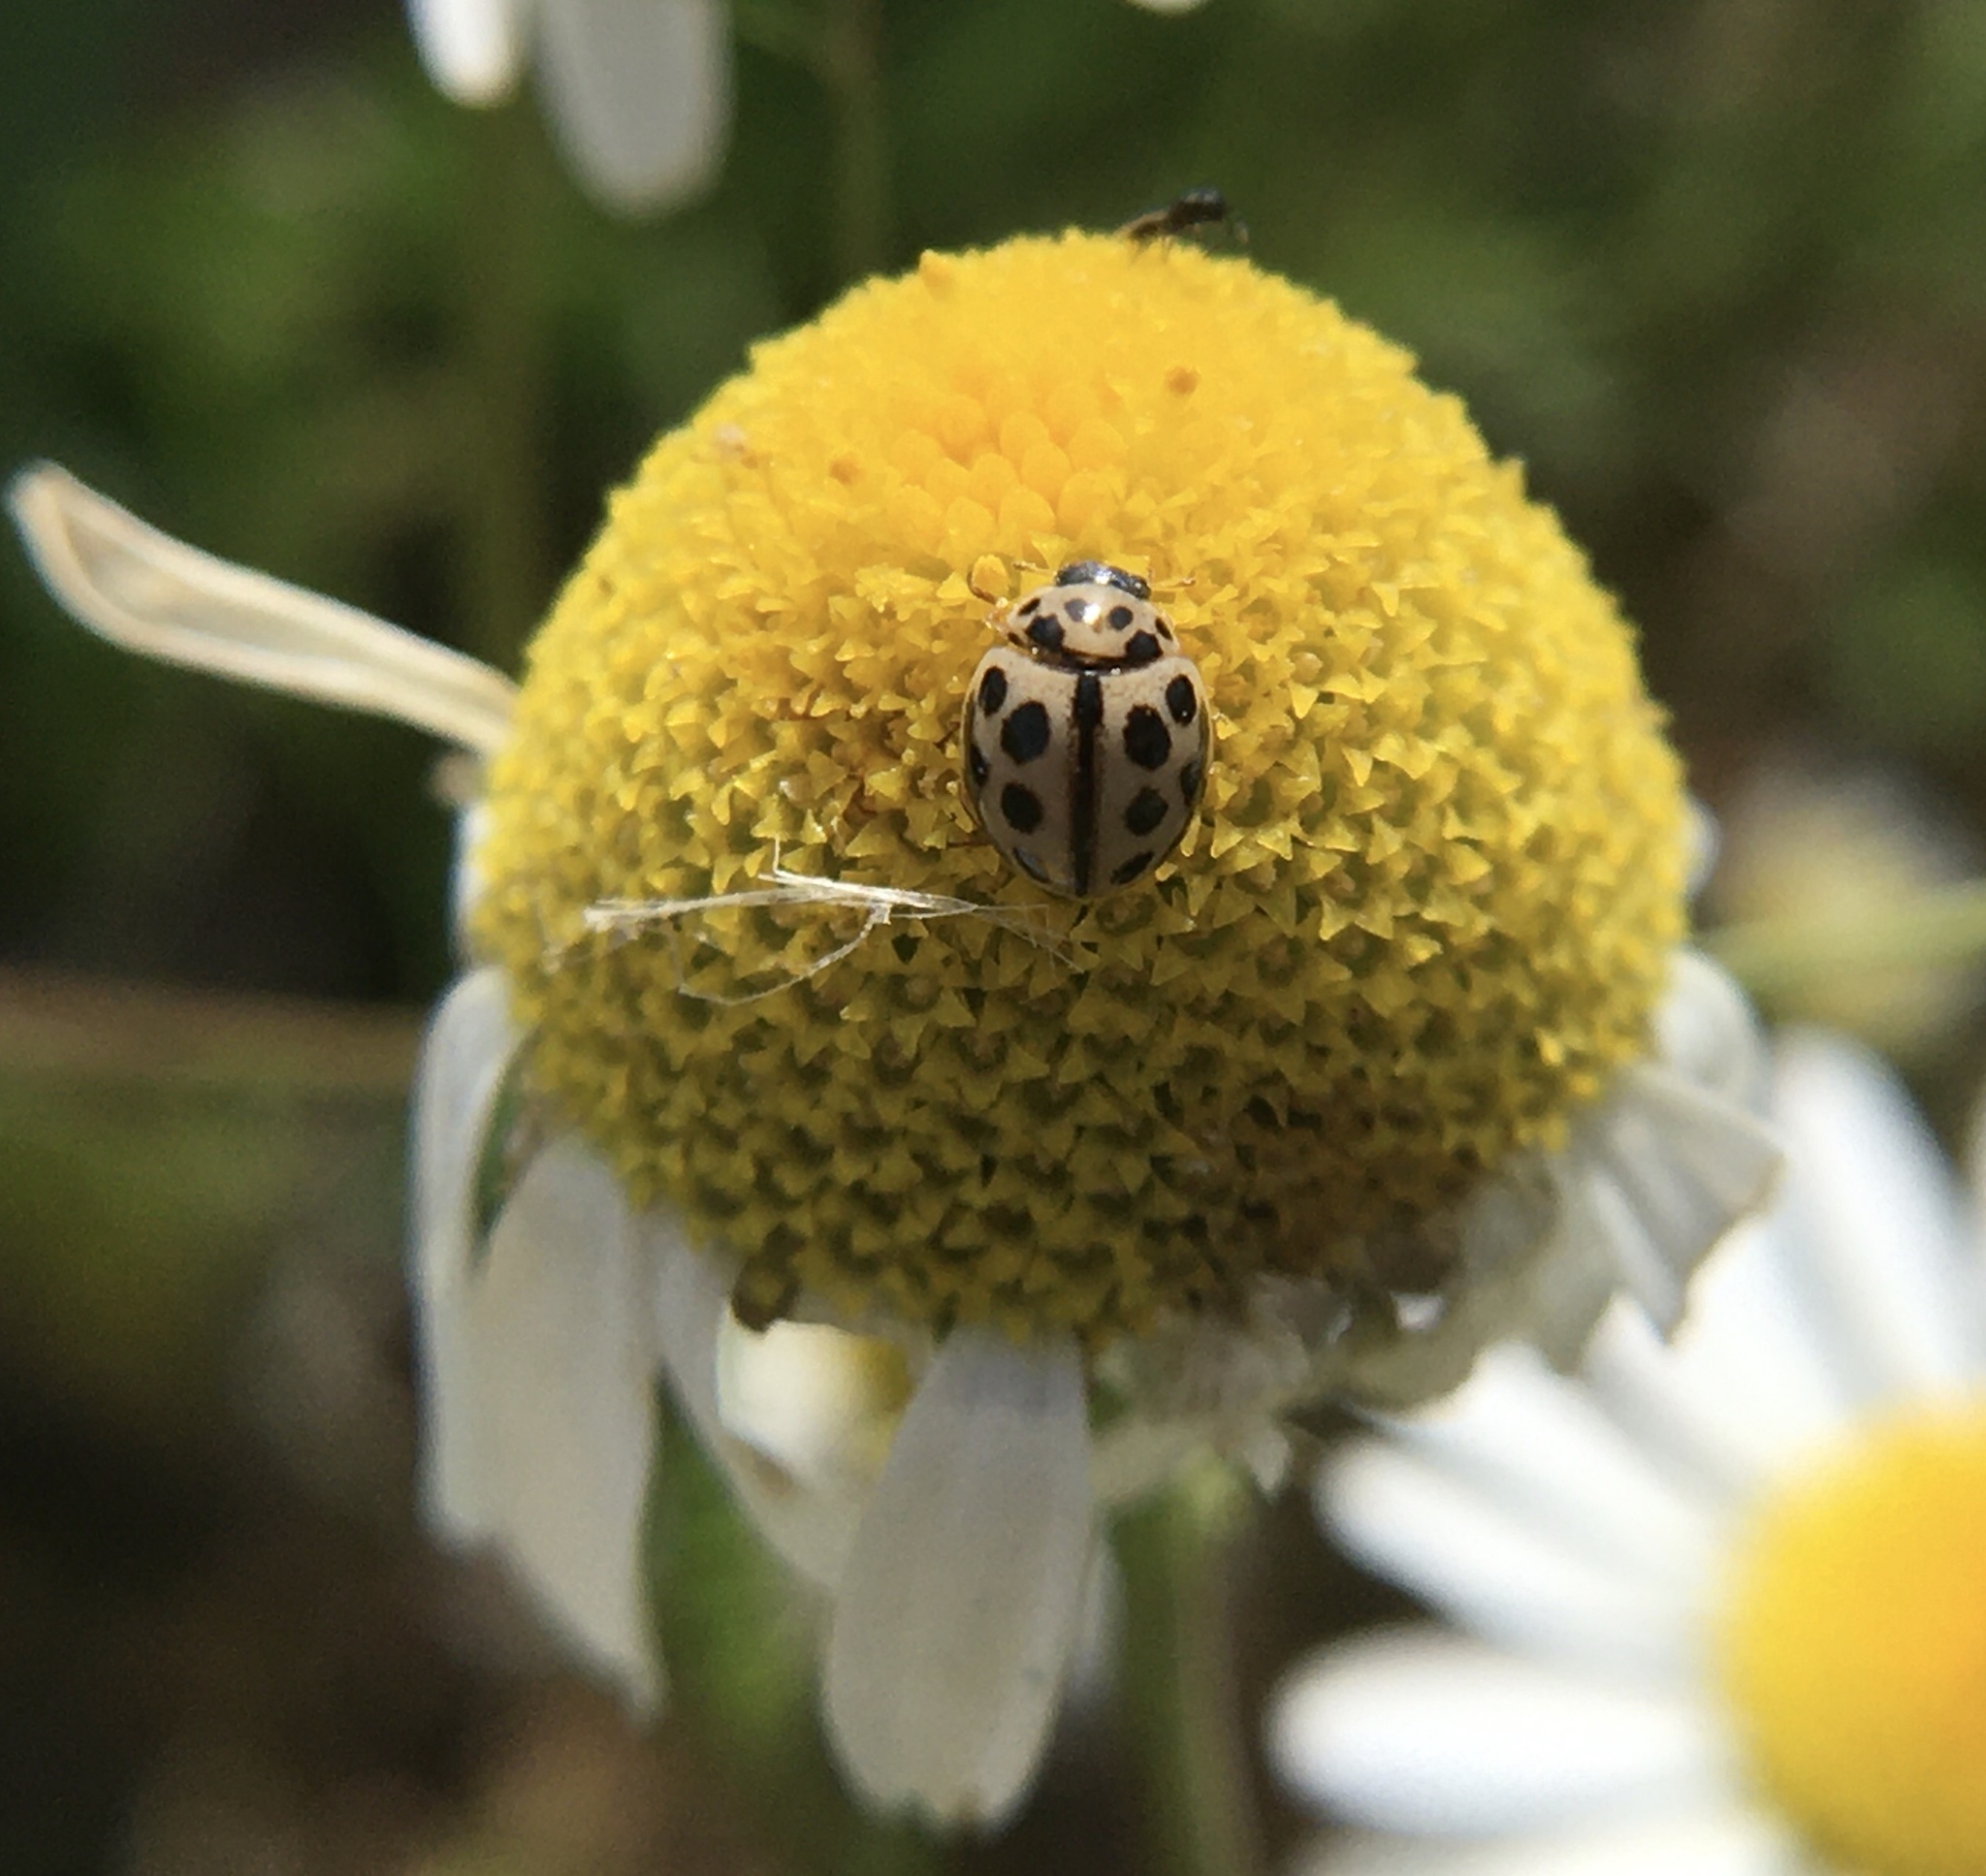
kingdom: Animalia
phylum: Arthropoda
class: Insecta
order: Coleoptera
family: Coccinellidae
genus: Tytthaspis
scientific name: Tytthaspis sedecimpunctata
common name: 16-spot ladybird
